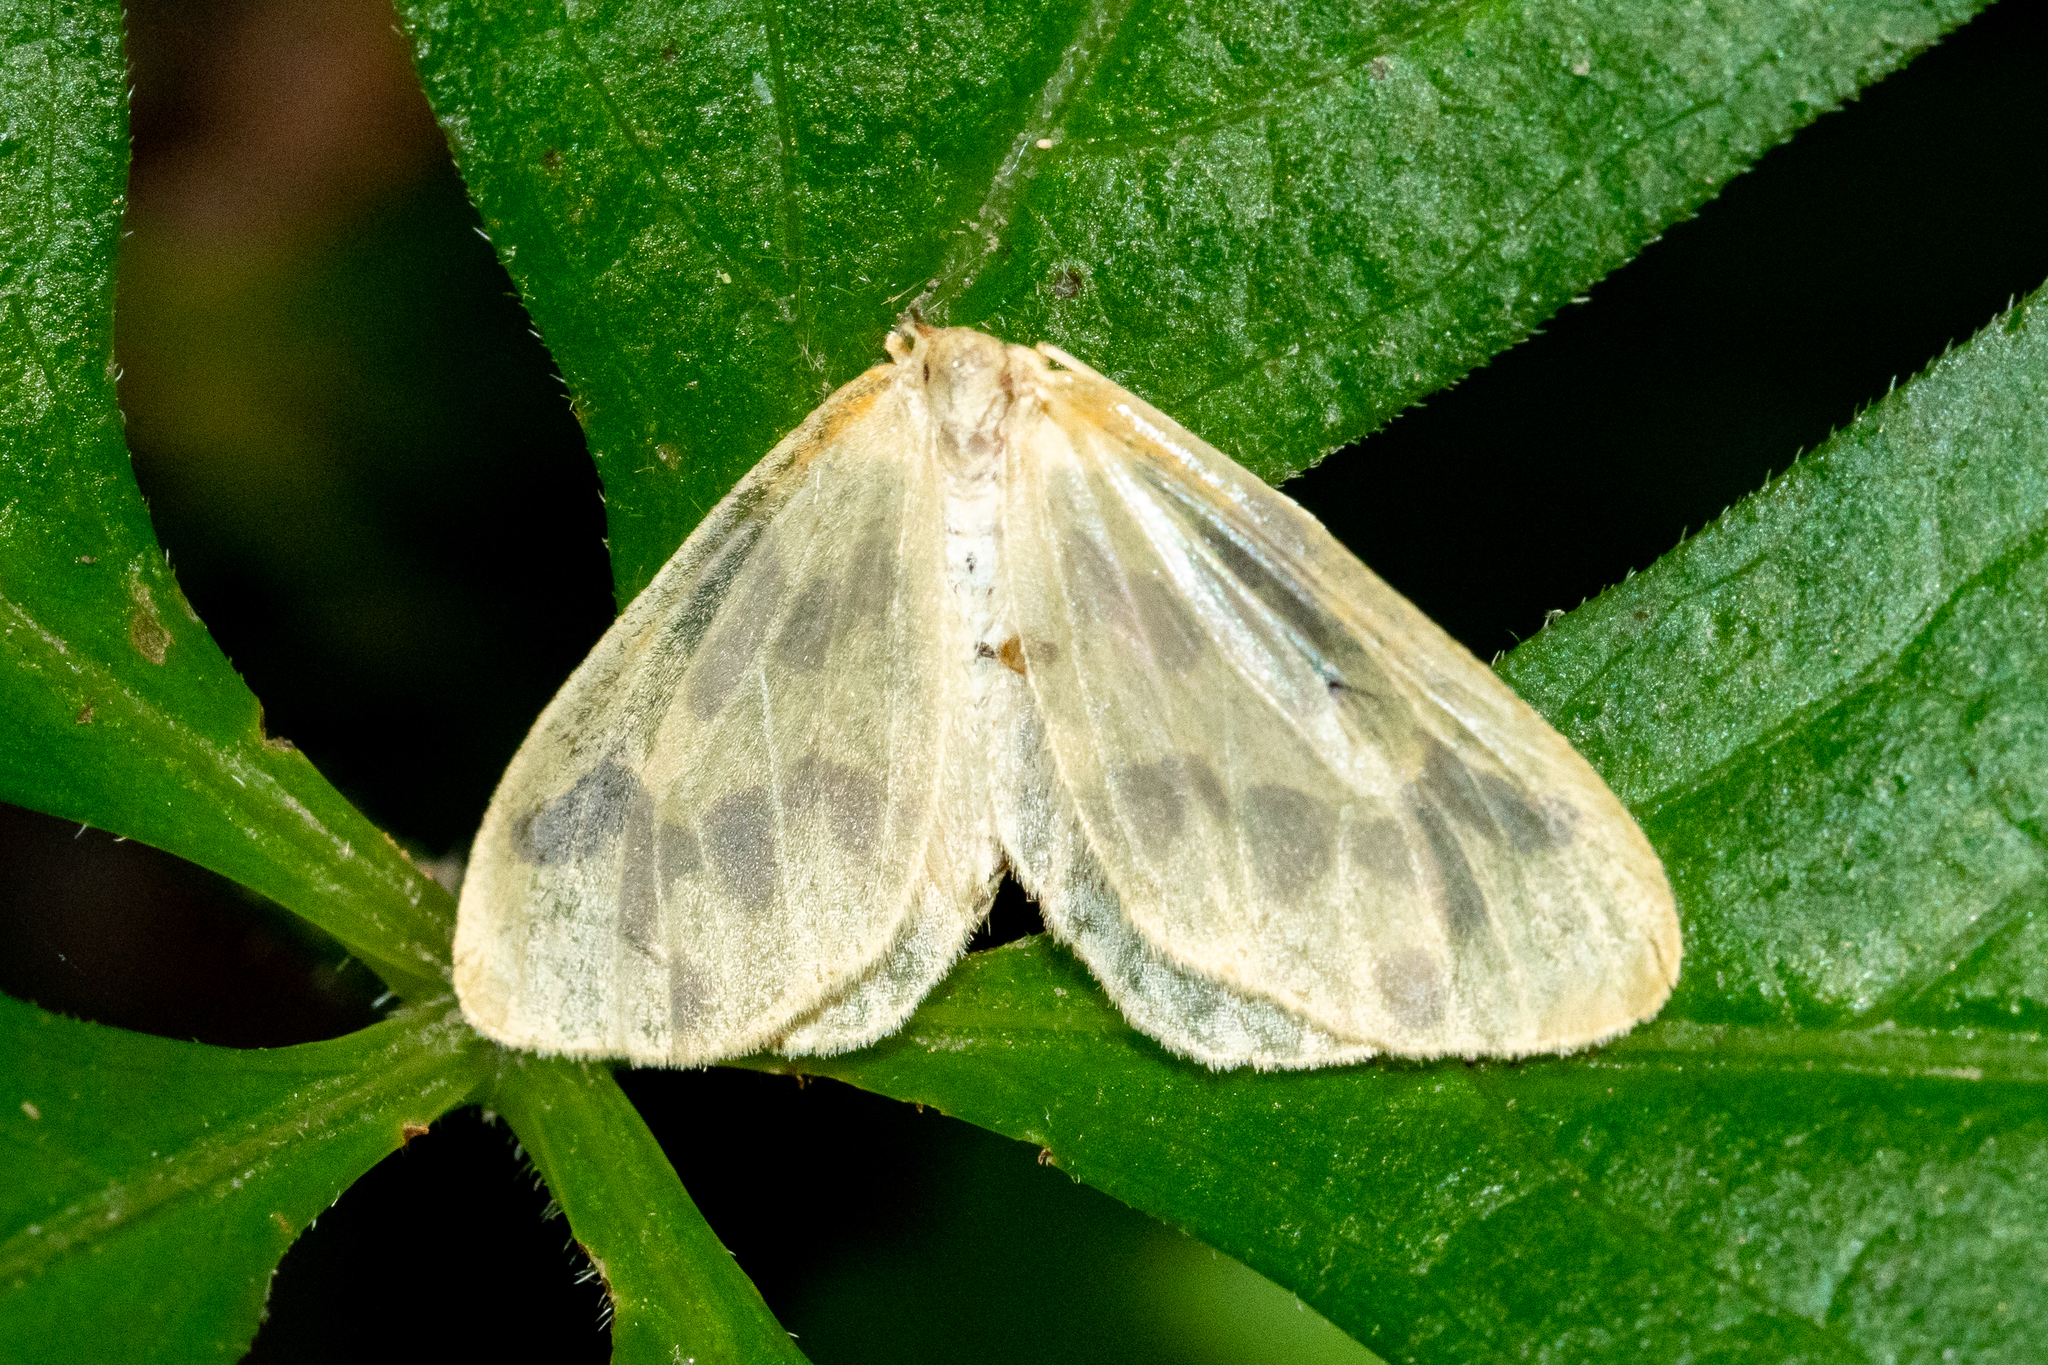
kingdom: Animalia
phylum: Arthropoda
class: Insecta
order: Lepidoptera
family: Geometridae
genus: Eubaphe
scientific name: Eubaphe mendica
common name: Beggar
